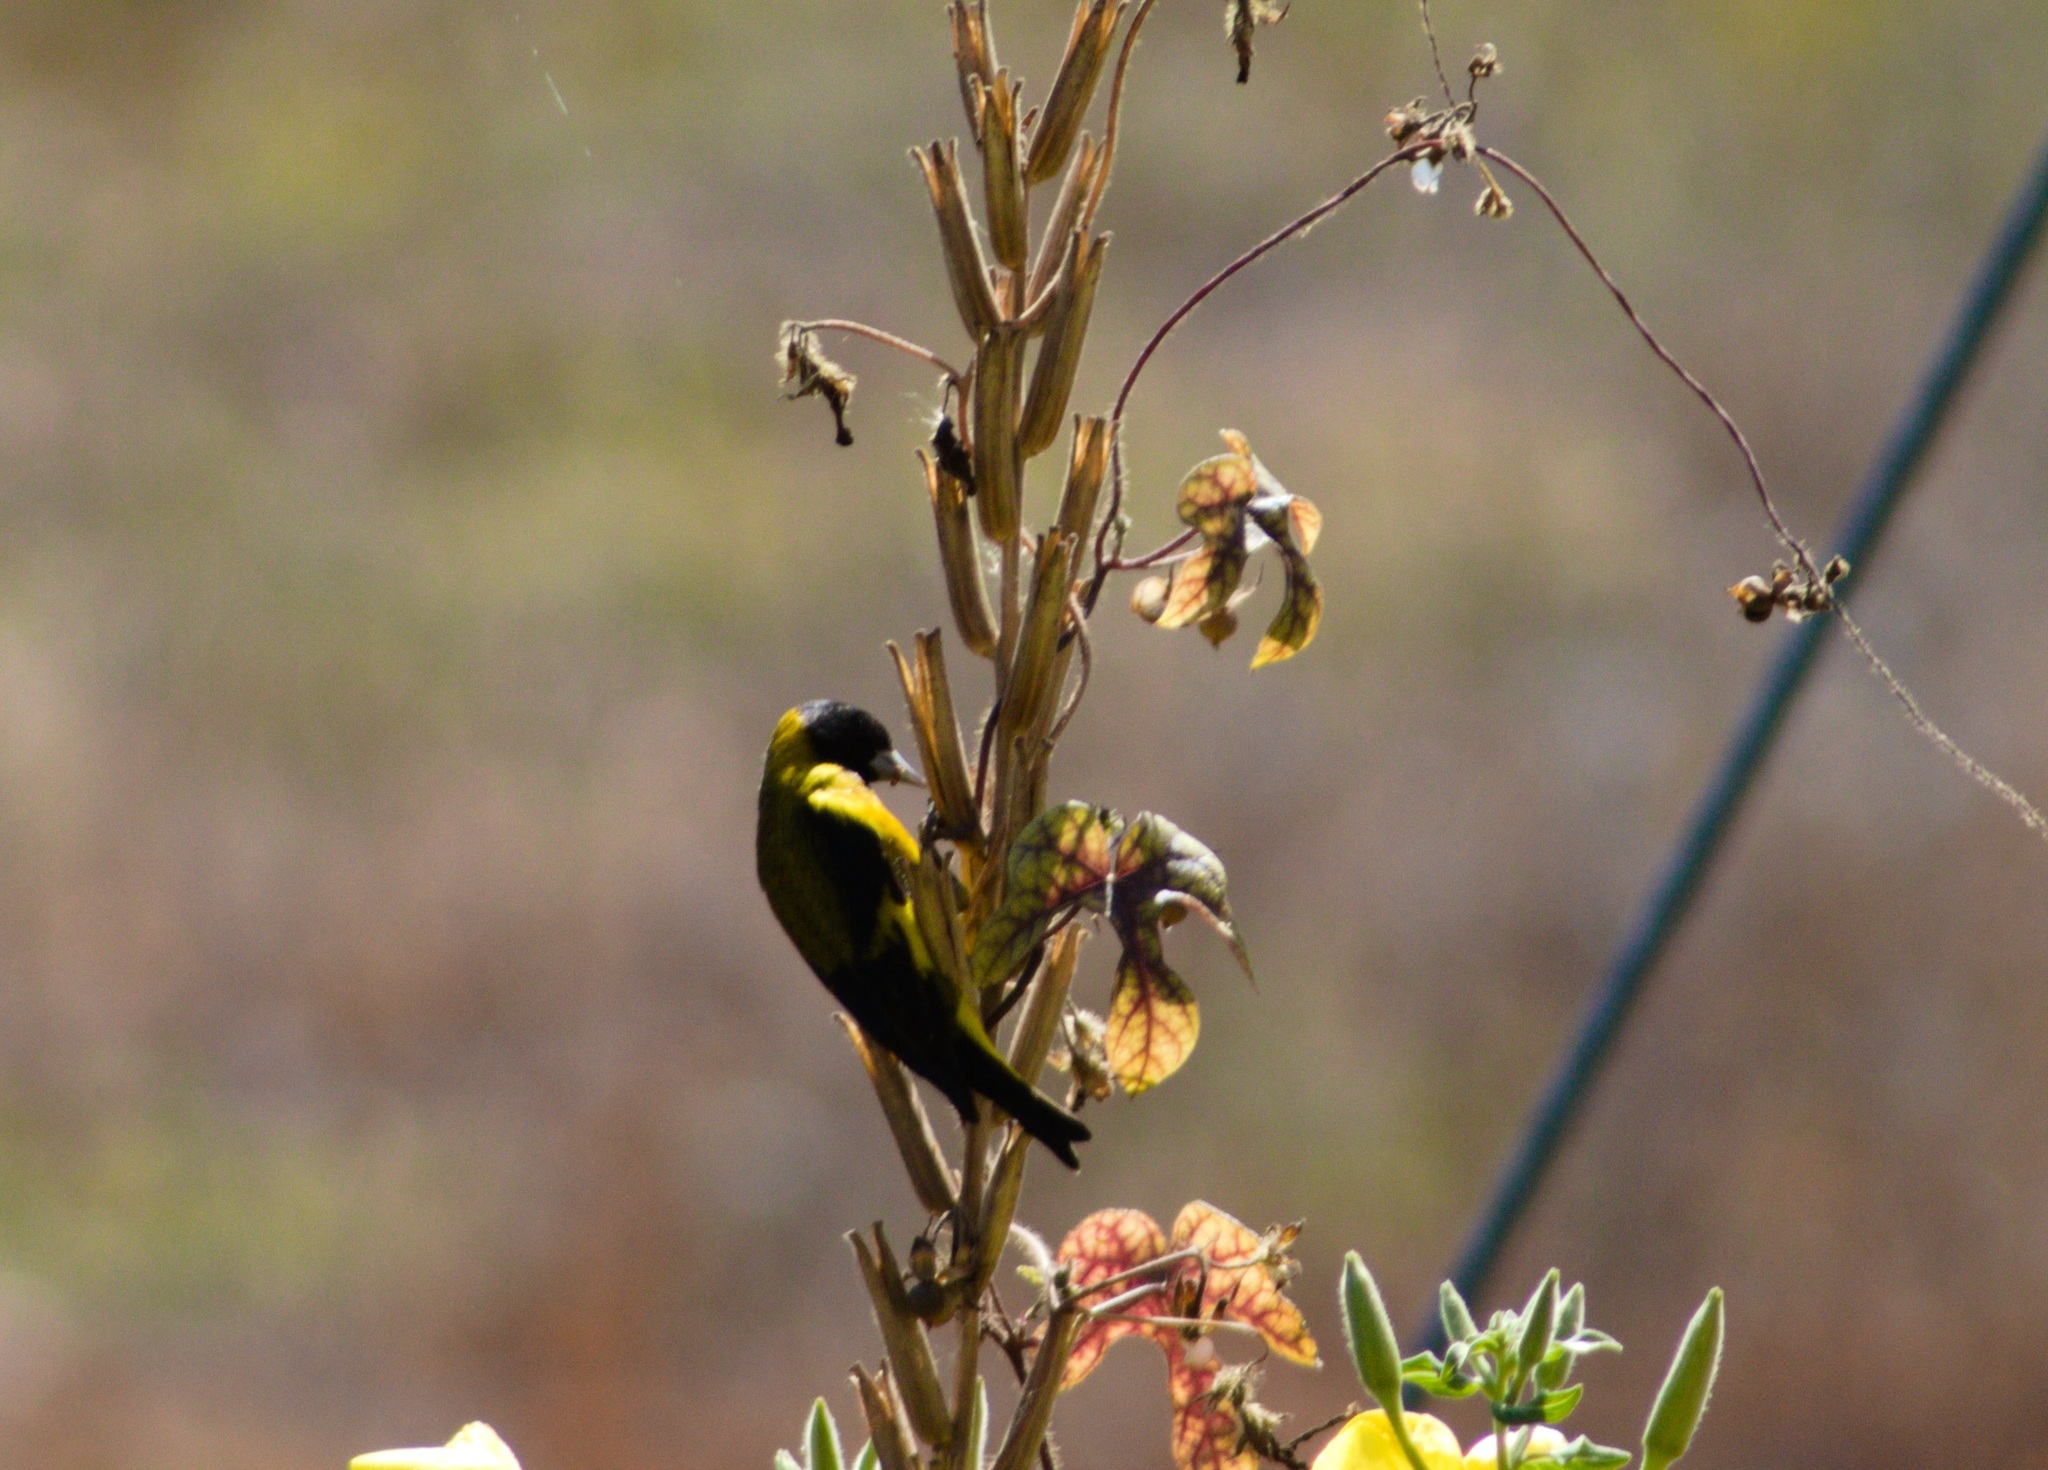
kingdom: Animalia
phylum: Chordata
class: Aves
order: Passeriformes
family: Fringillidae
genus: Spinus
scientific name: Spinus notatus
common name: Black-headed siskin
